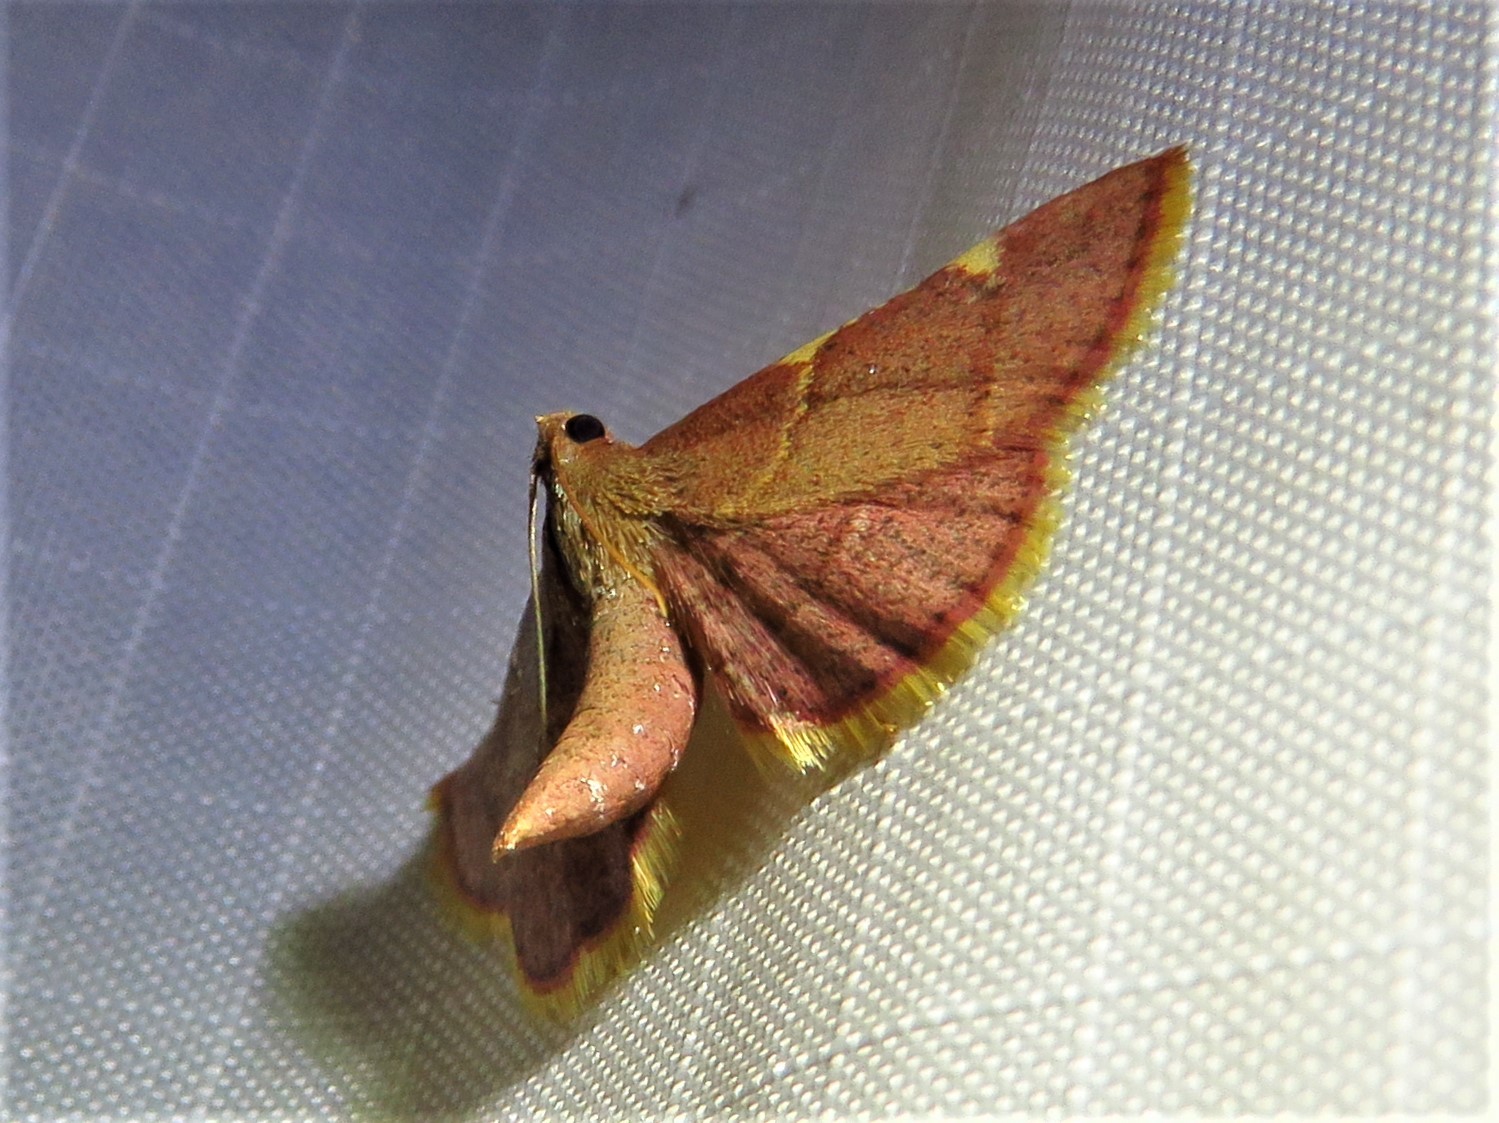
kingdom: Animalia
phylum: Arthropoda
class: Insecta
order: Lepidoptera
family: Pyralidae
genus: Hypsopygia
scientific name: Hypsopygia olinalis
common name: Yellow-fringed dolichomia moth
